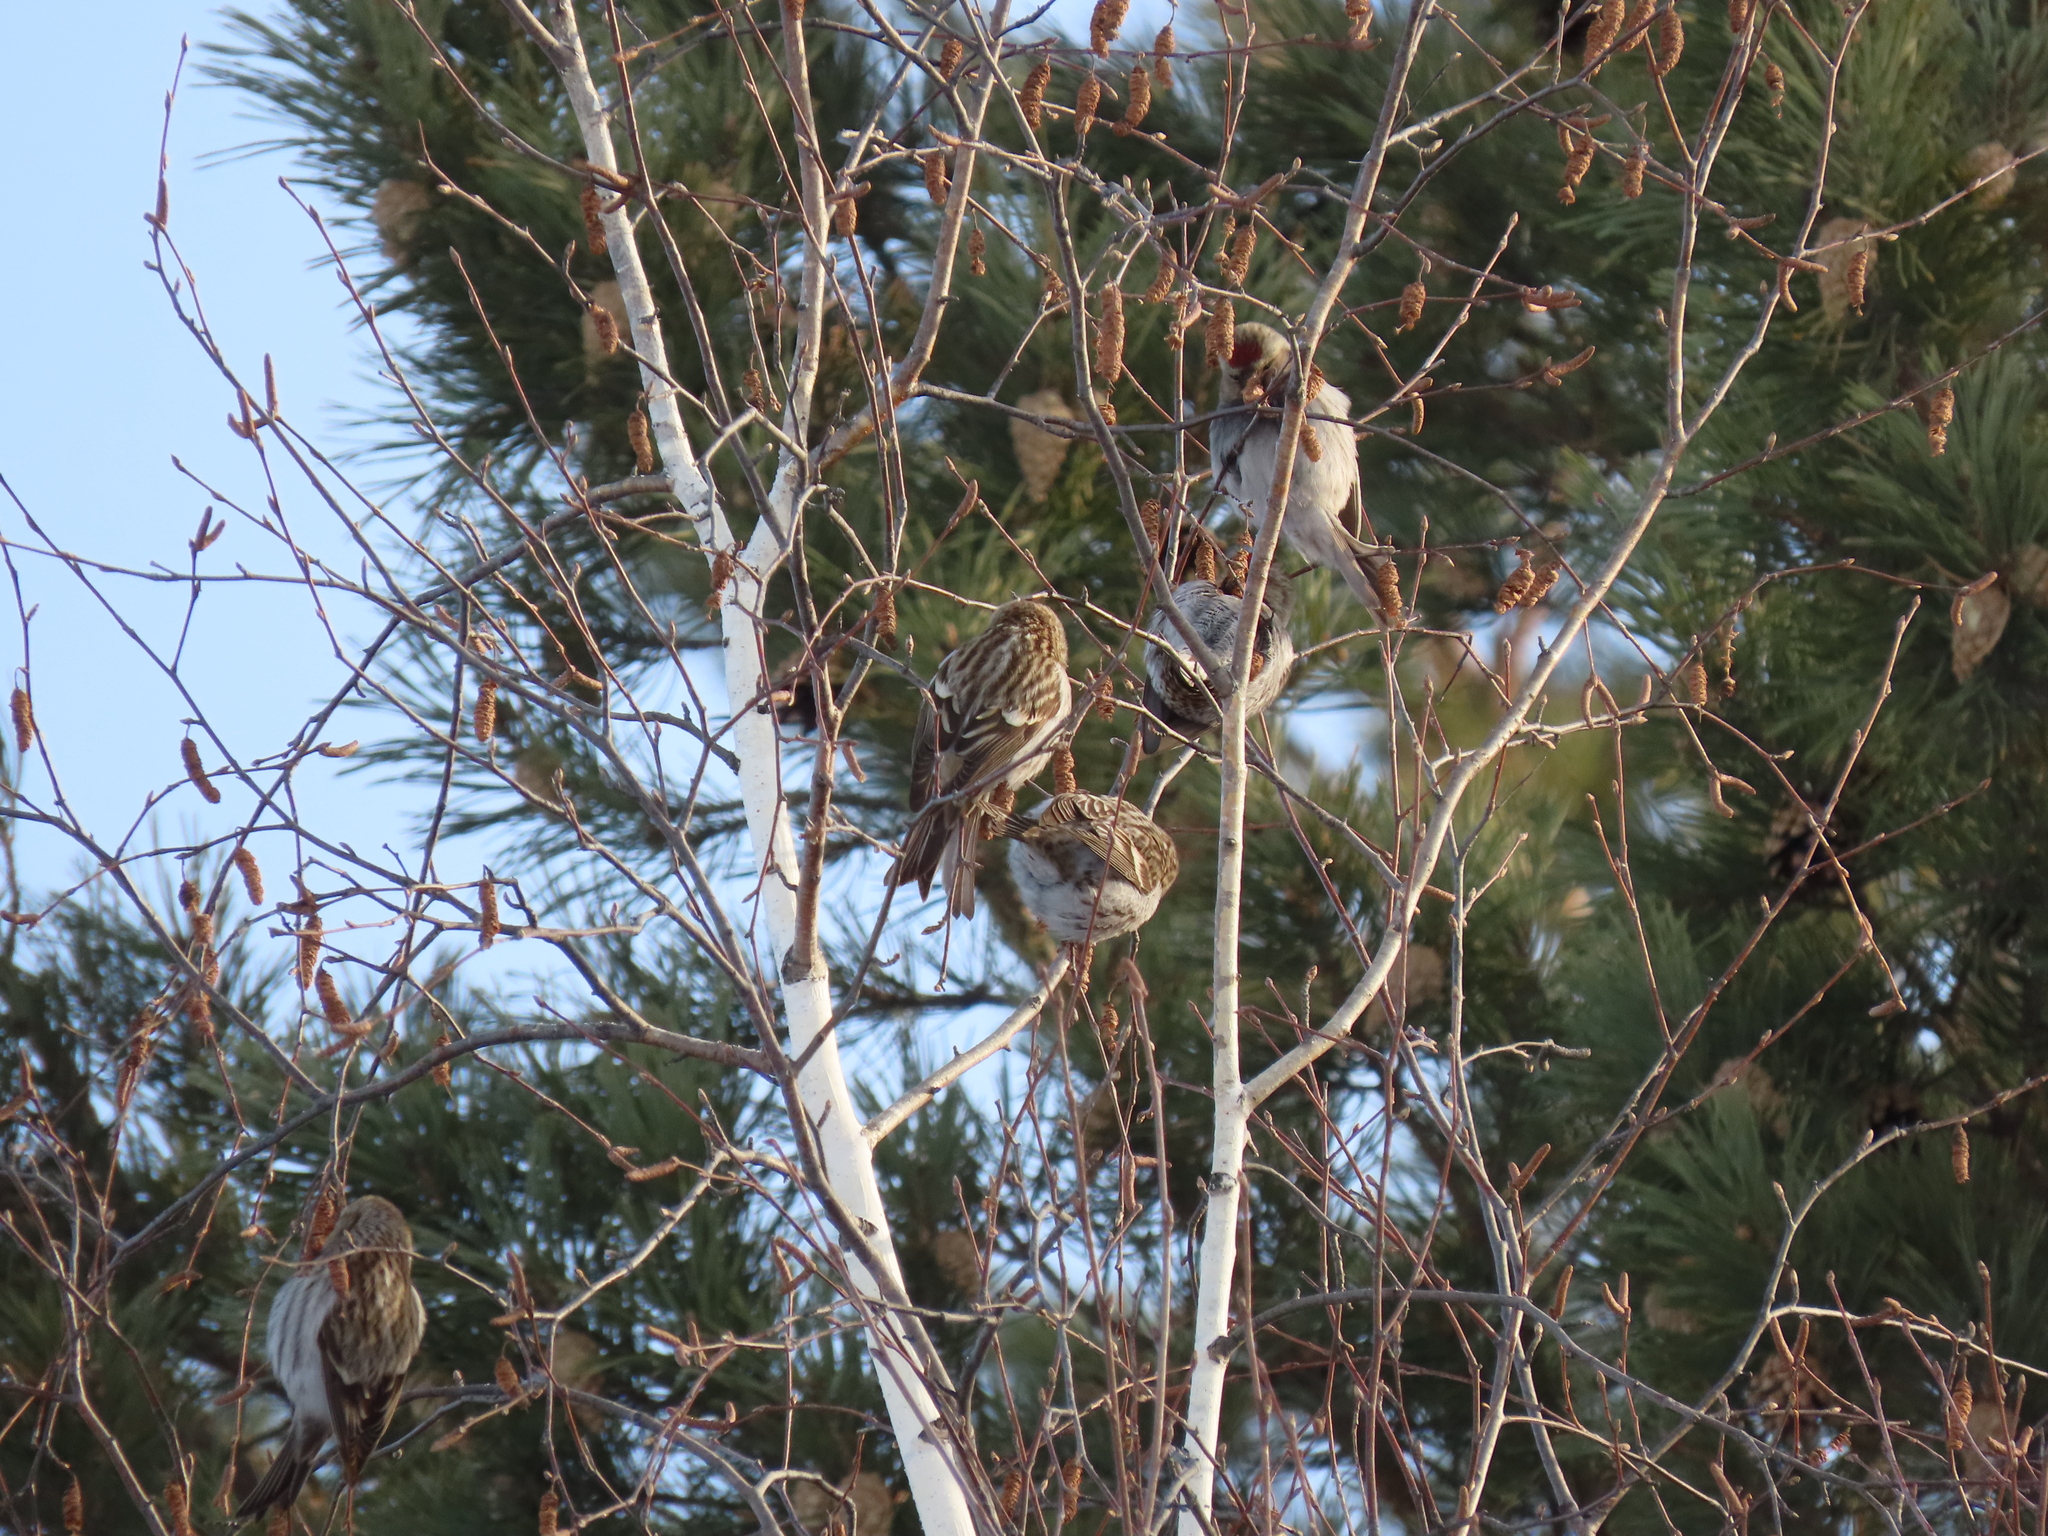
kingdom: Animalia
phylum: Chordata
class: Aves
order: Passeriformes
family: Fringillidae
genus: Acanthis
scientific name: Acanthis flammea
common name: Common redpoll
